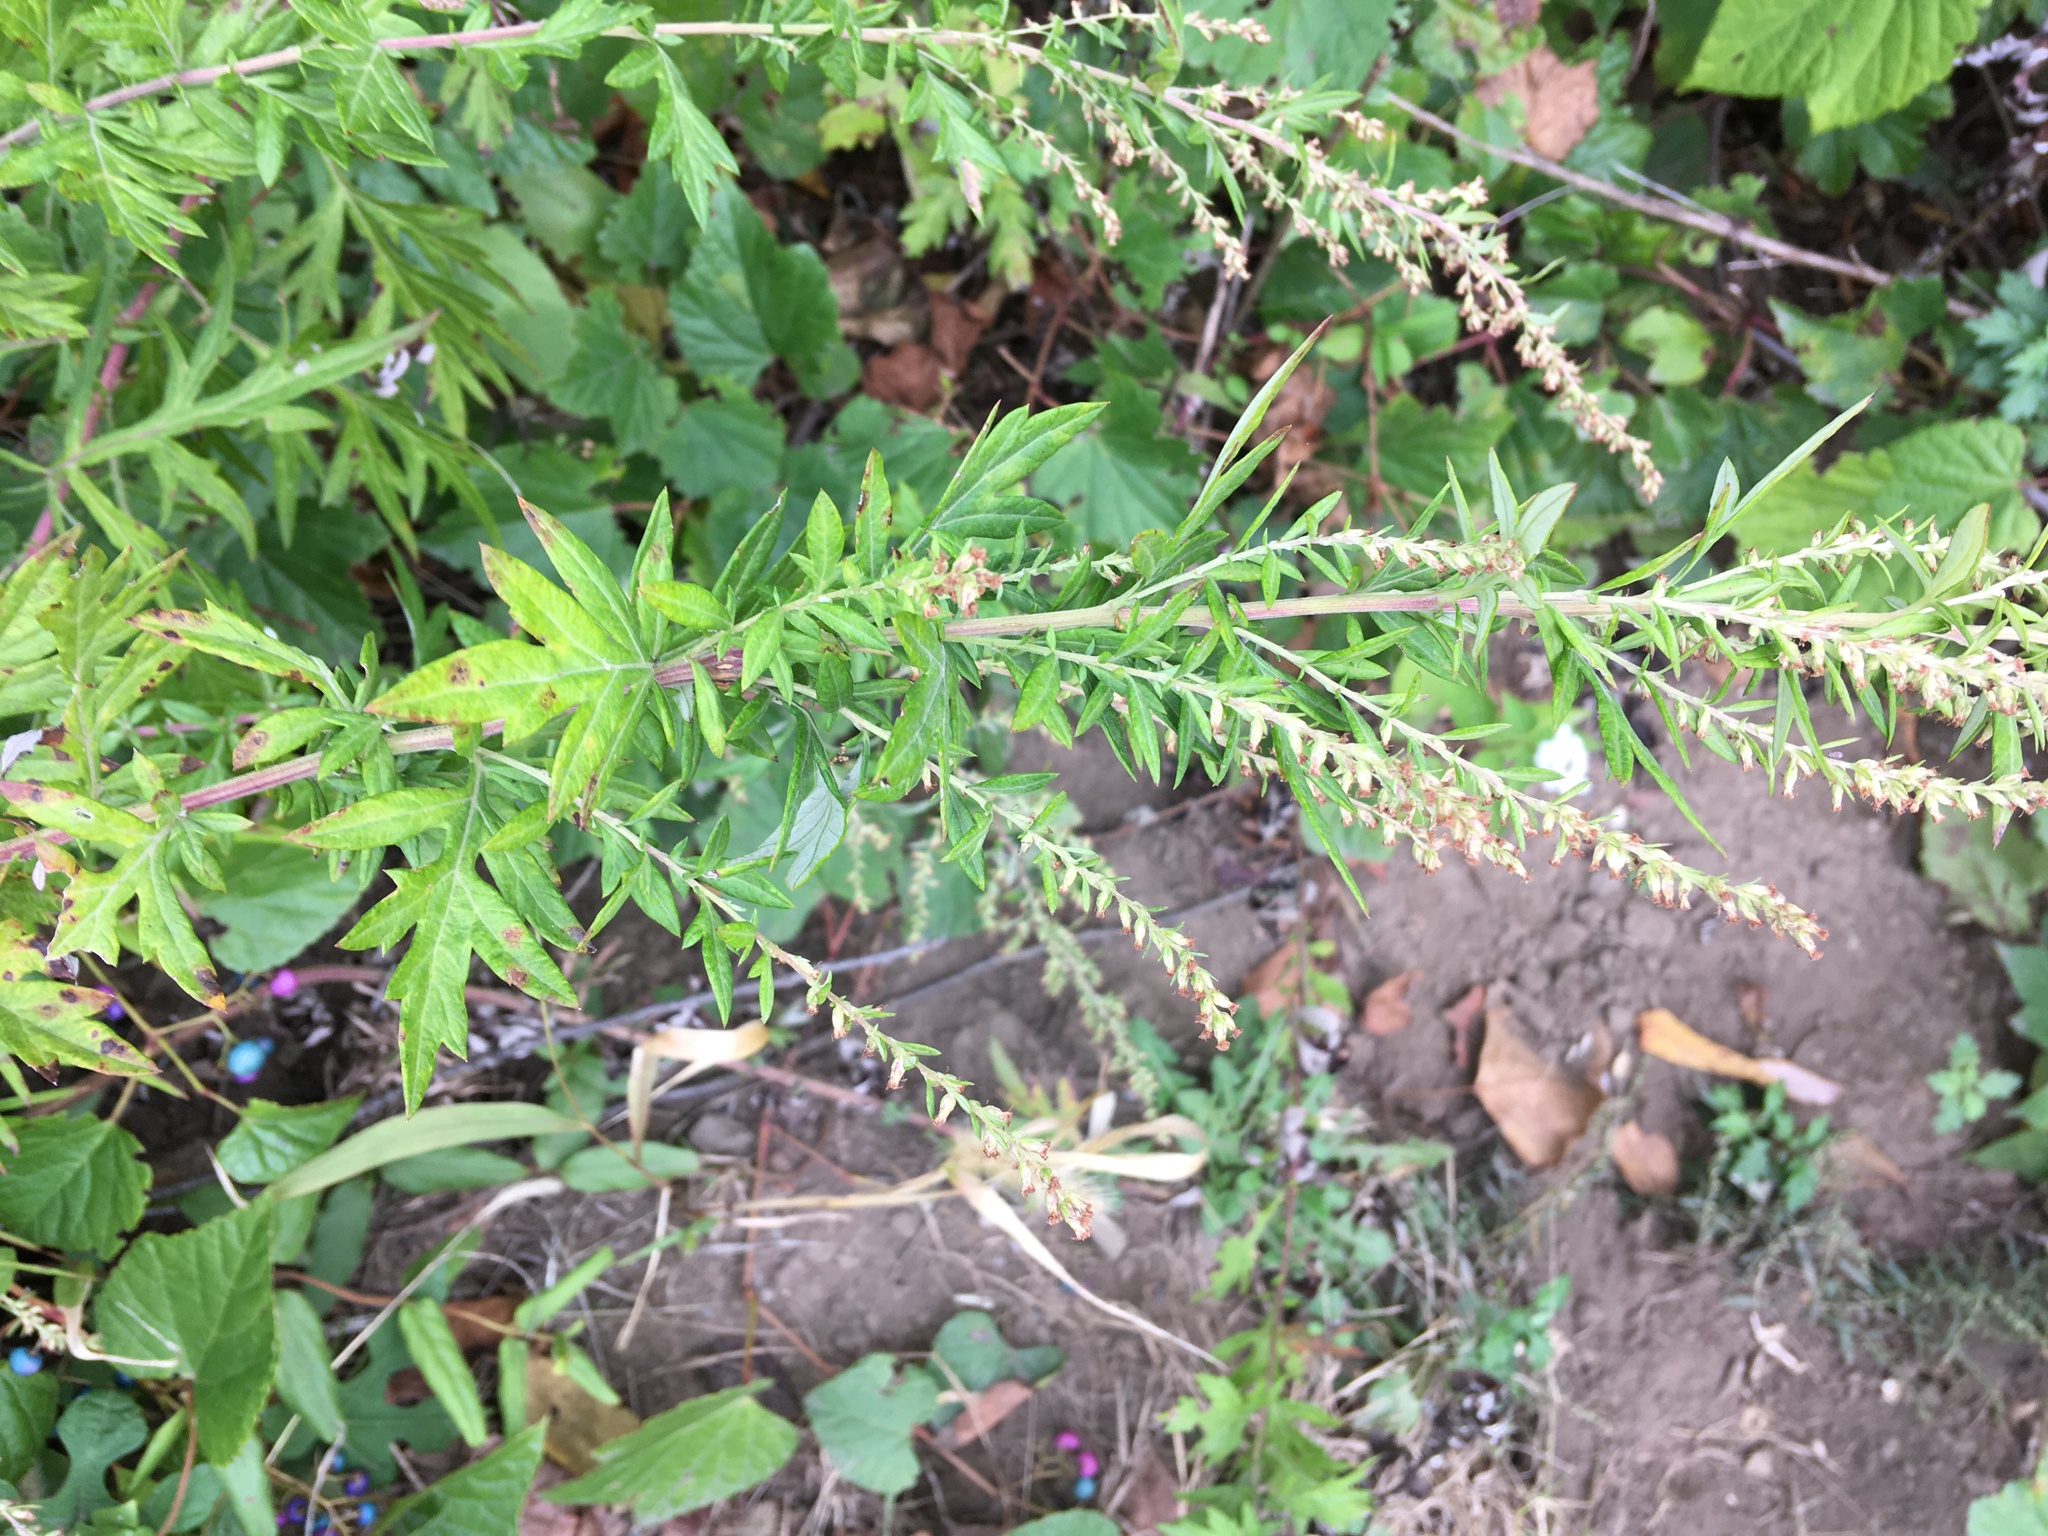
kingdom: Plantae
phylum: Tracheophyta
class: Magnoliopsida
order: Asterales
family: Asteraceae
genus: Artemisia
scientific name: Artemisia vulgaris
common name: Mugwort
